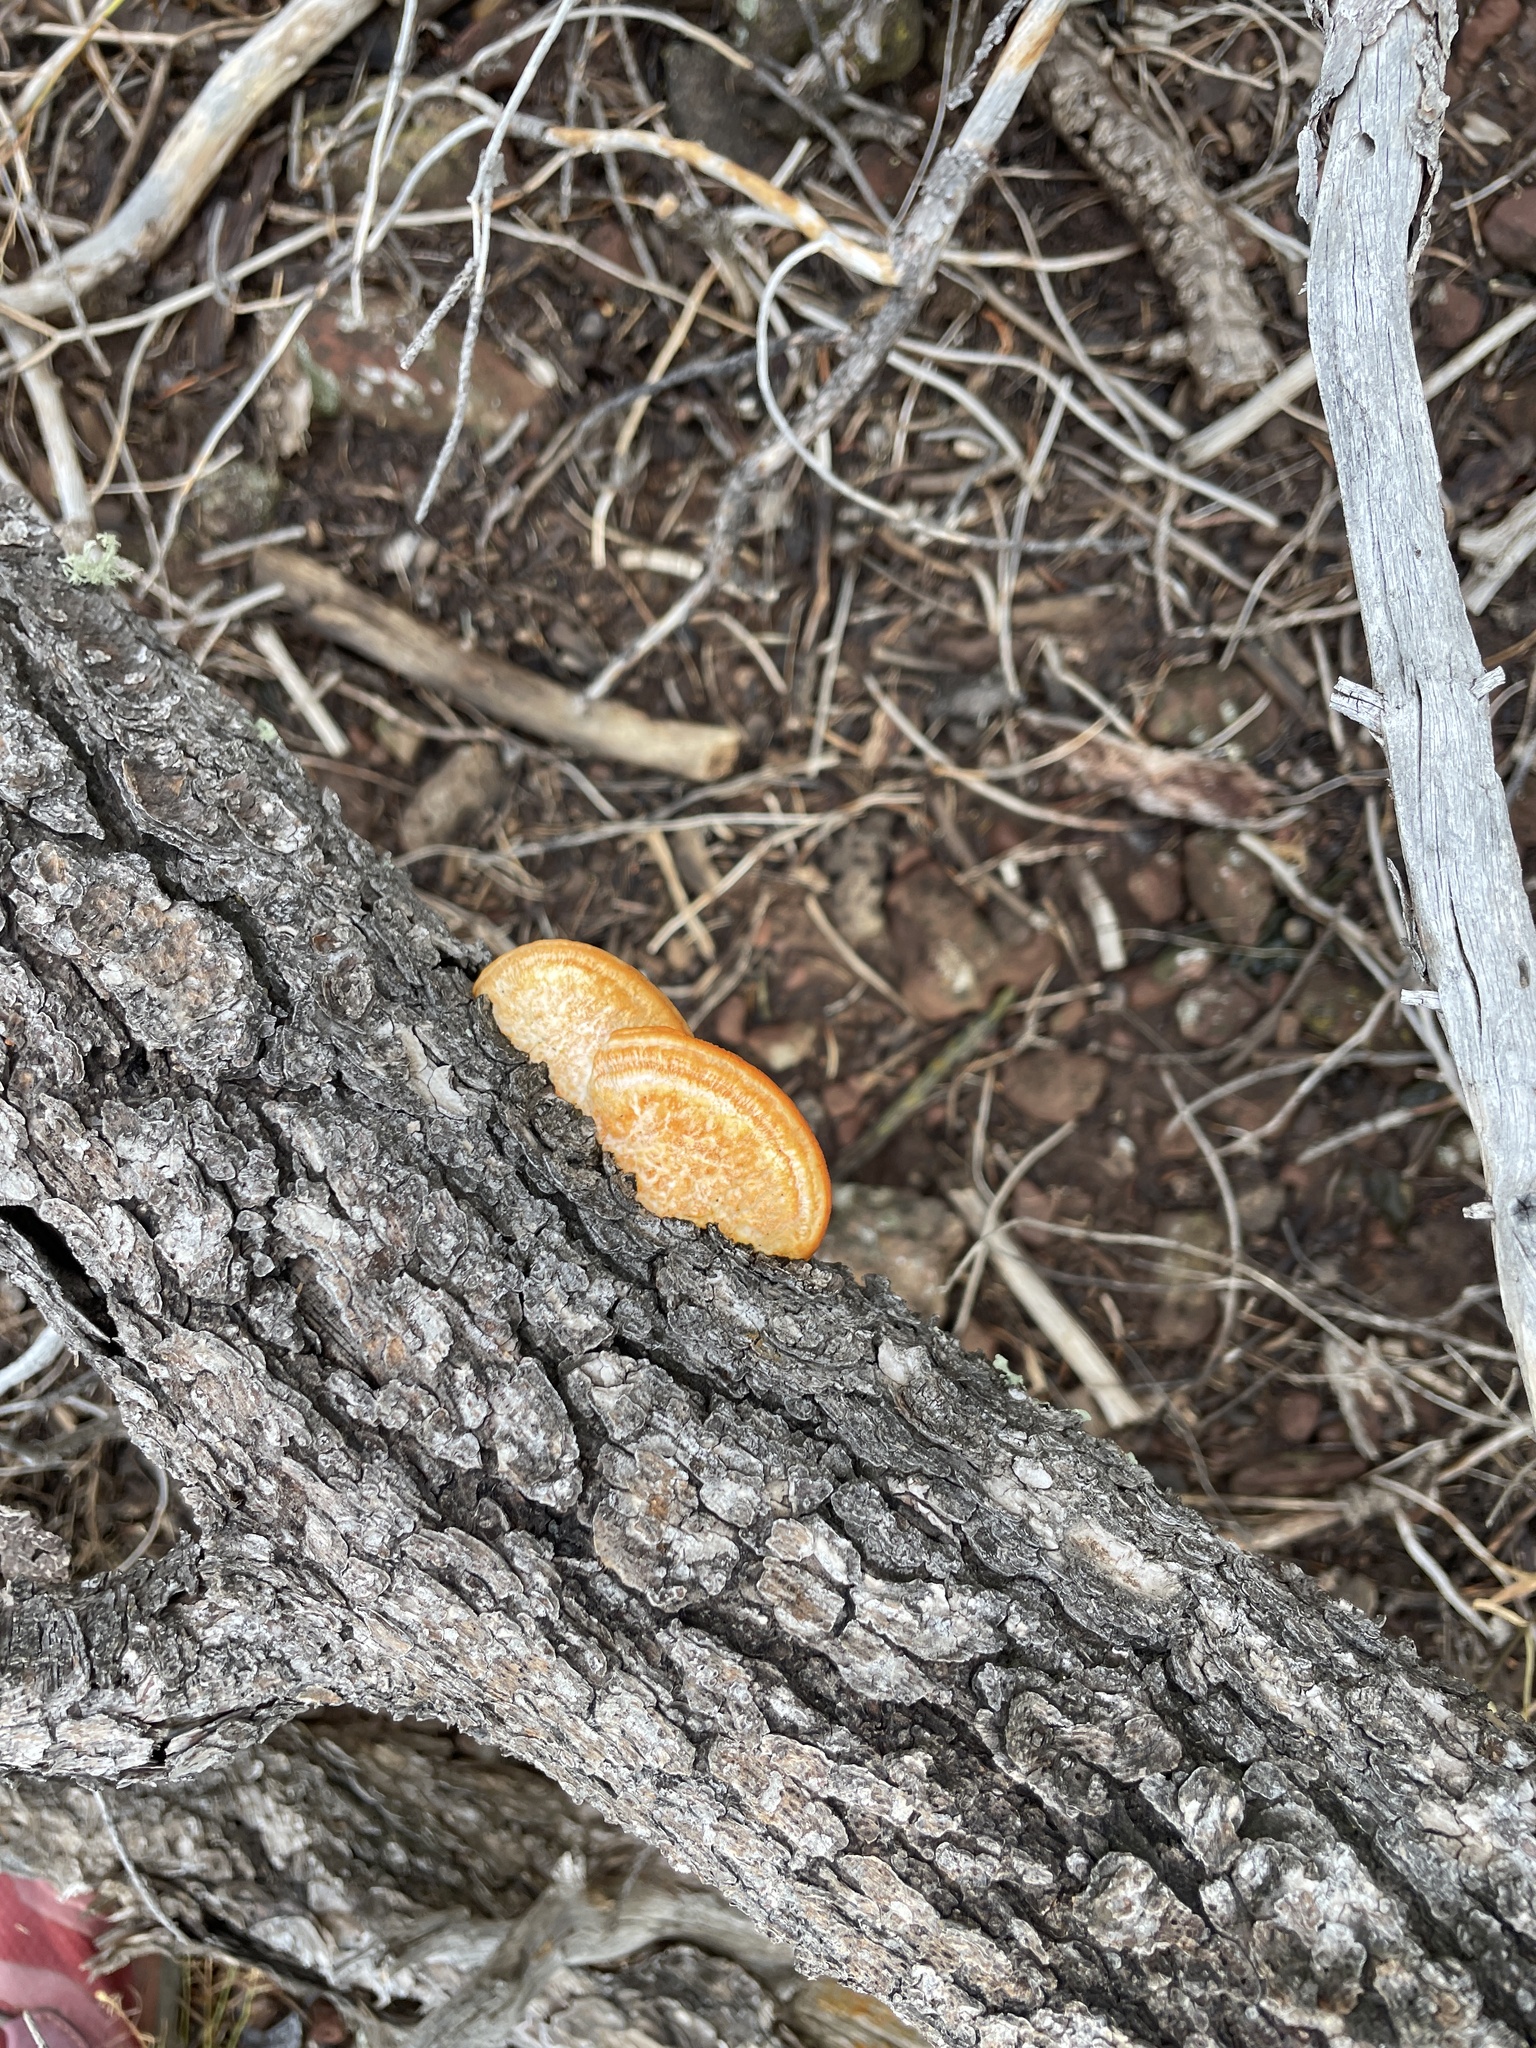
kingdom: Fungi
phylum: Basidiomycota
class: Agaricomycetes
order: Polyporales
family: Polyporaceae
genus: Trametes
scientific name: Trametes cinnabarina
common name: Northern cinnabar polypore
